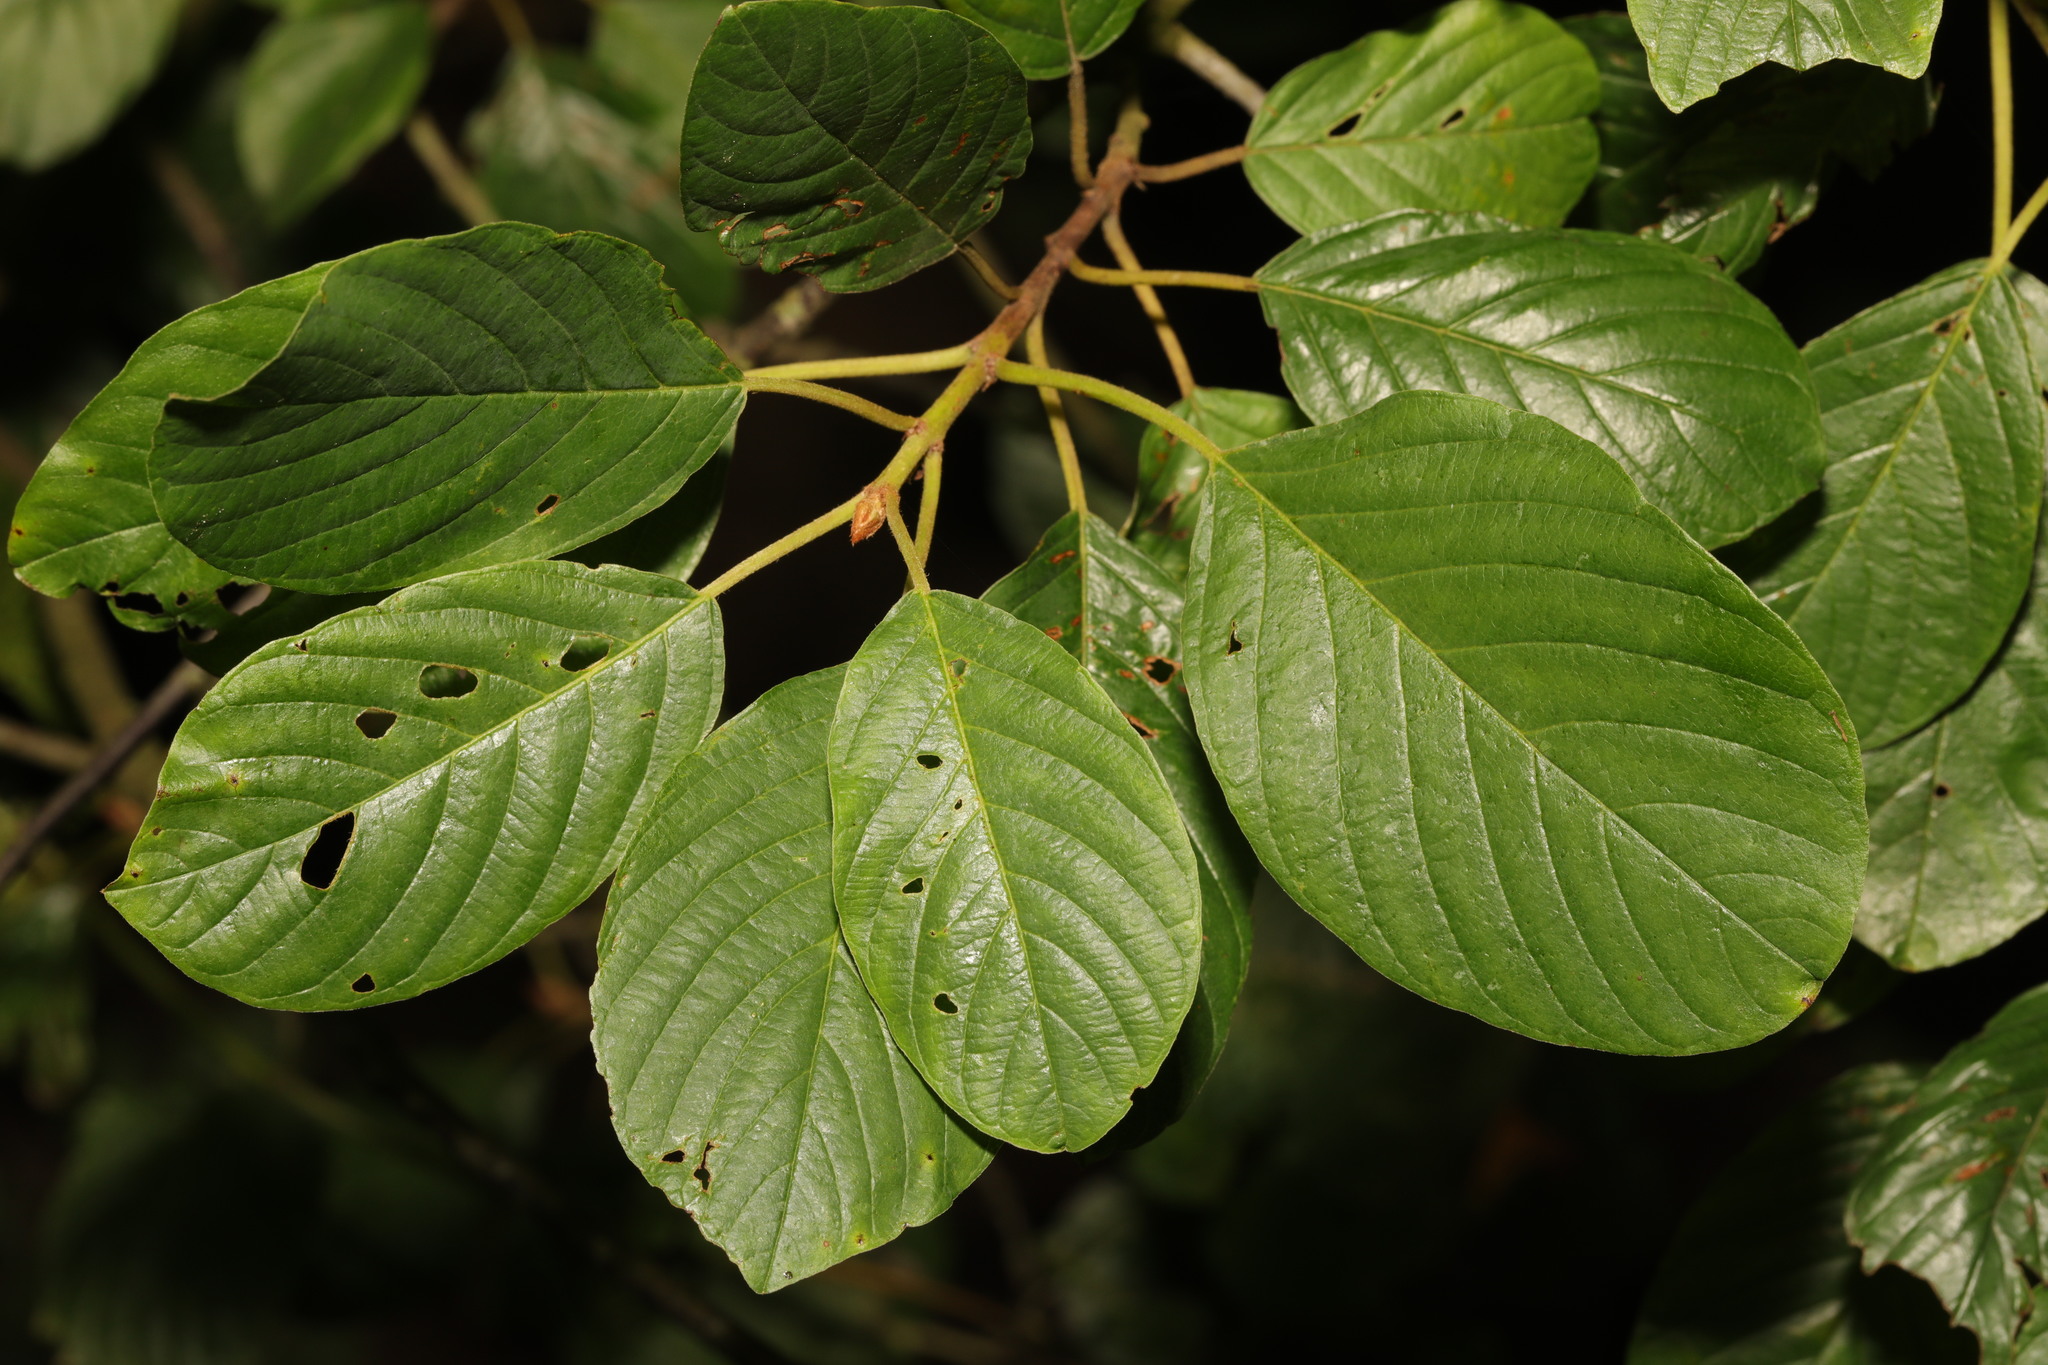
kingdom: Plantae
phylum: Tracheophyta
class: Magnoliopsida
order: Rosales
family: Rhamnaceae
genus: Frangula
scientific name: Frangula alnus
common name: Alder buckthorn
